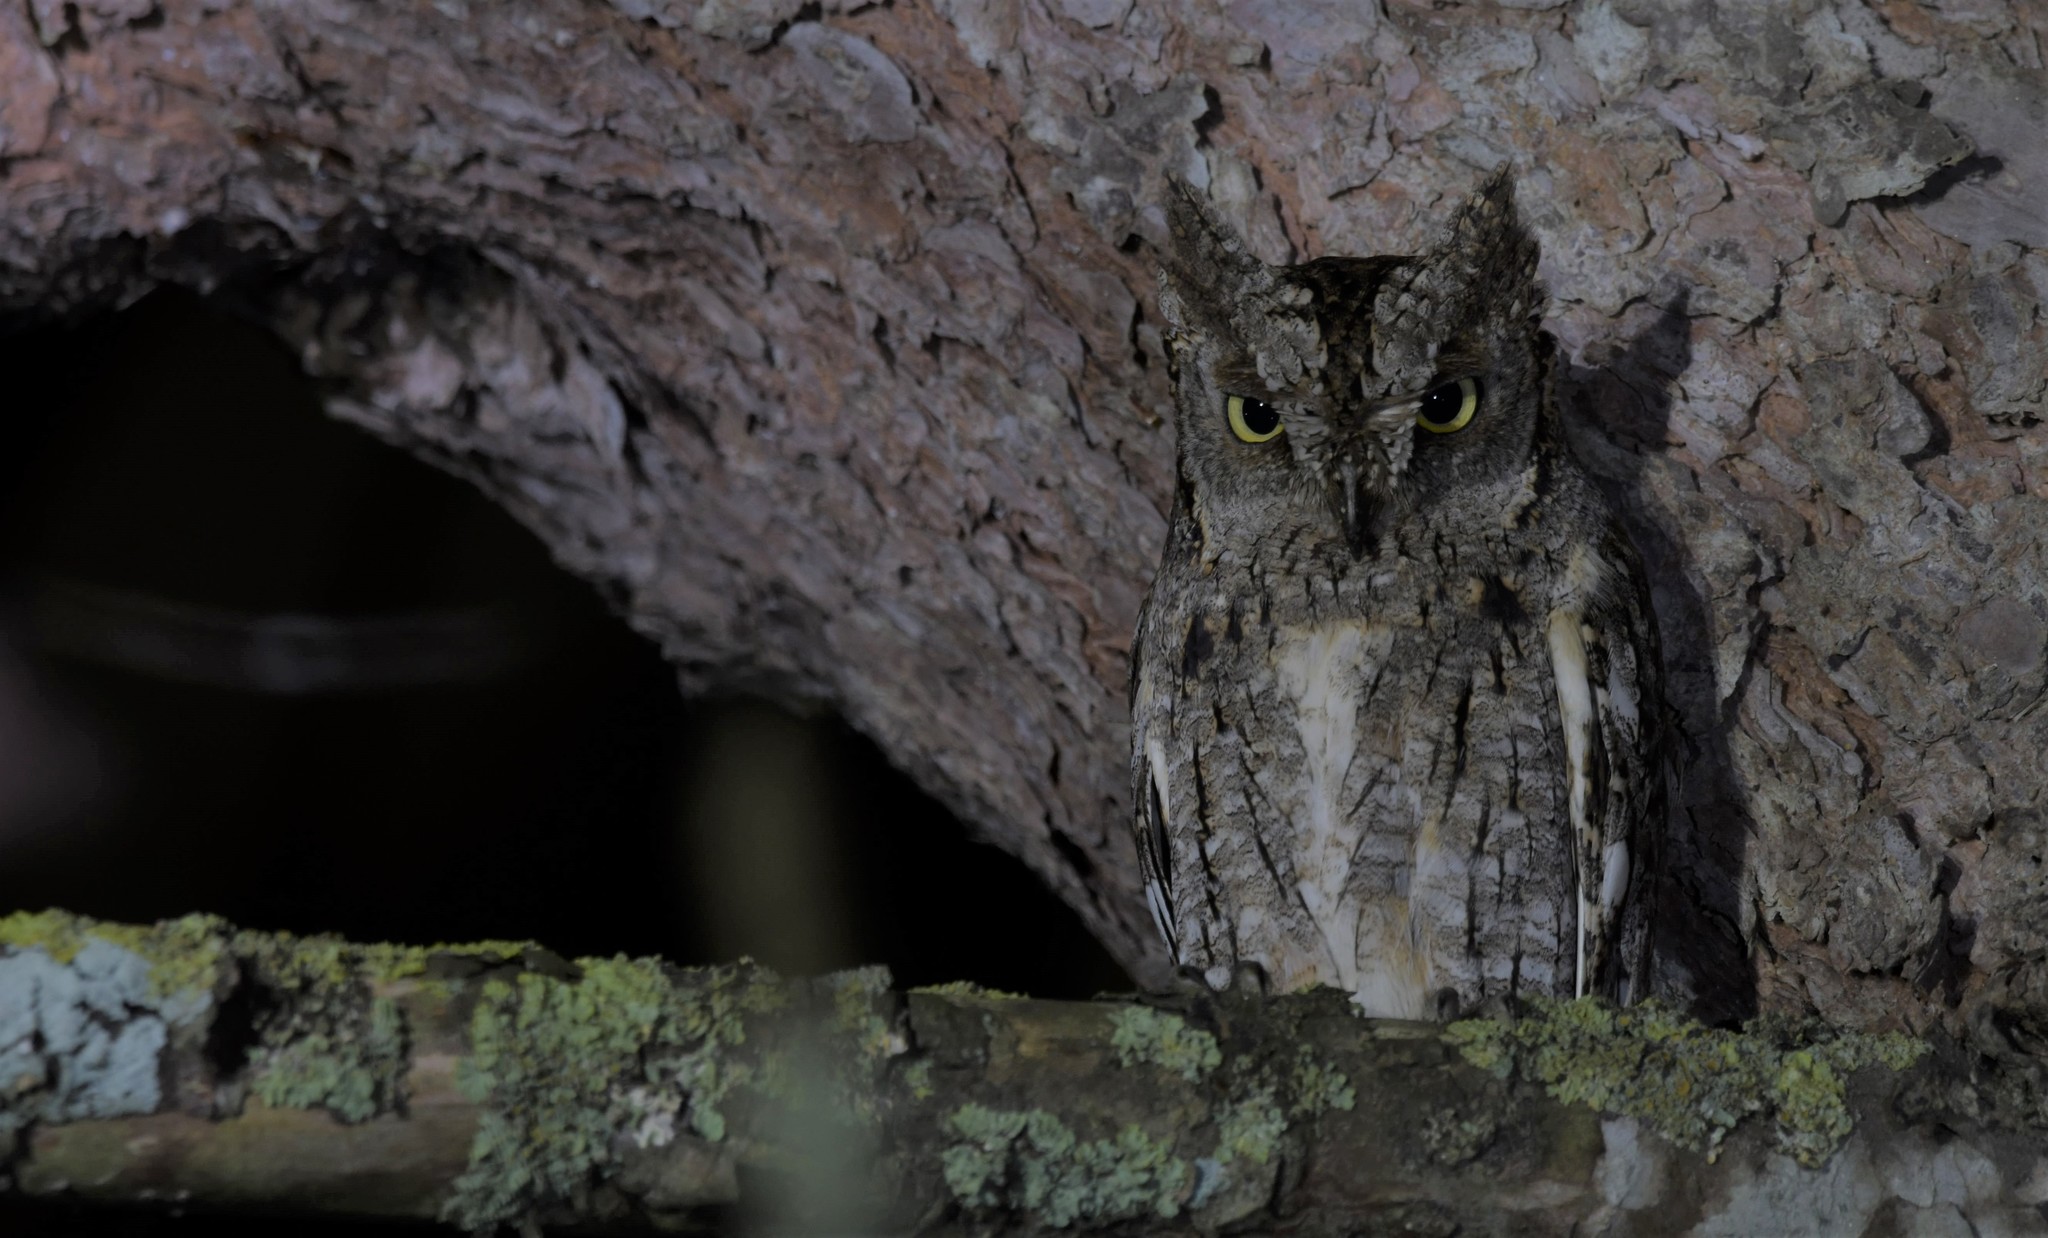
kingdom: Animalia
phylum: Chordata
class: Aves
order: Strigiformes
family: Strigidae
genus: Otus
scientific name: Otus scops
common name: Eurasian scops owl
